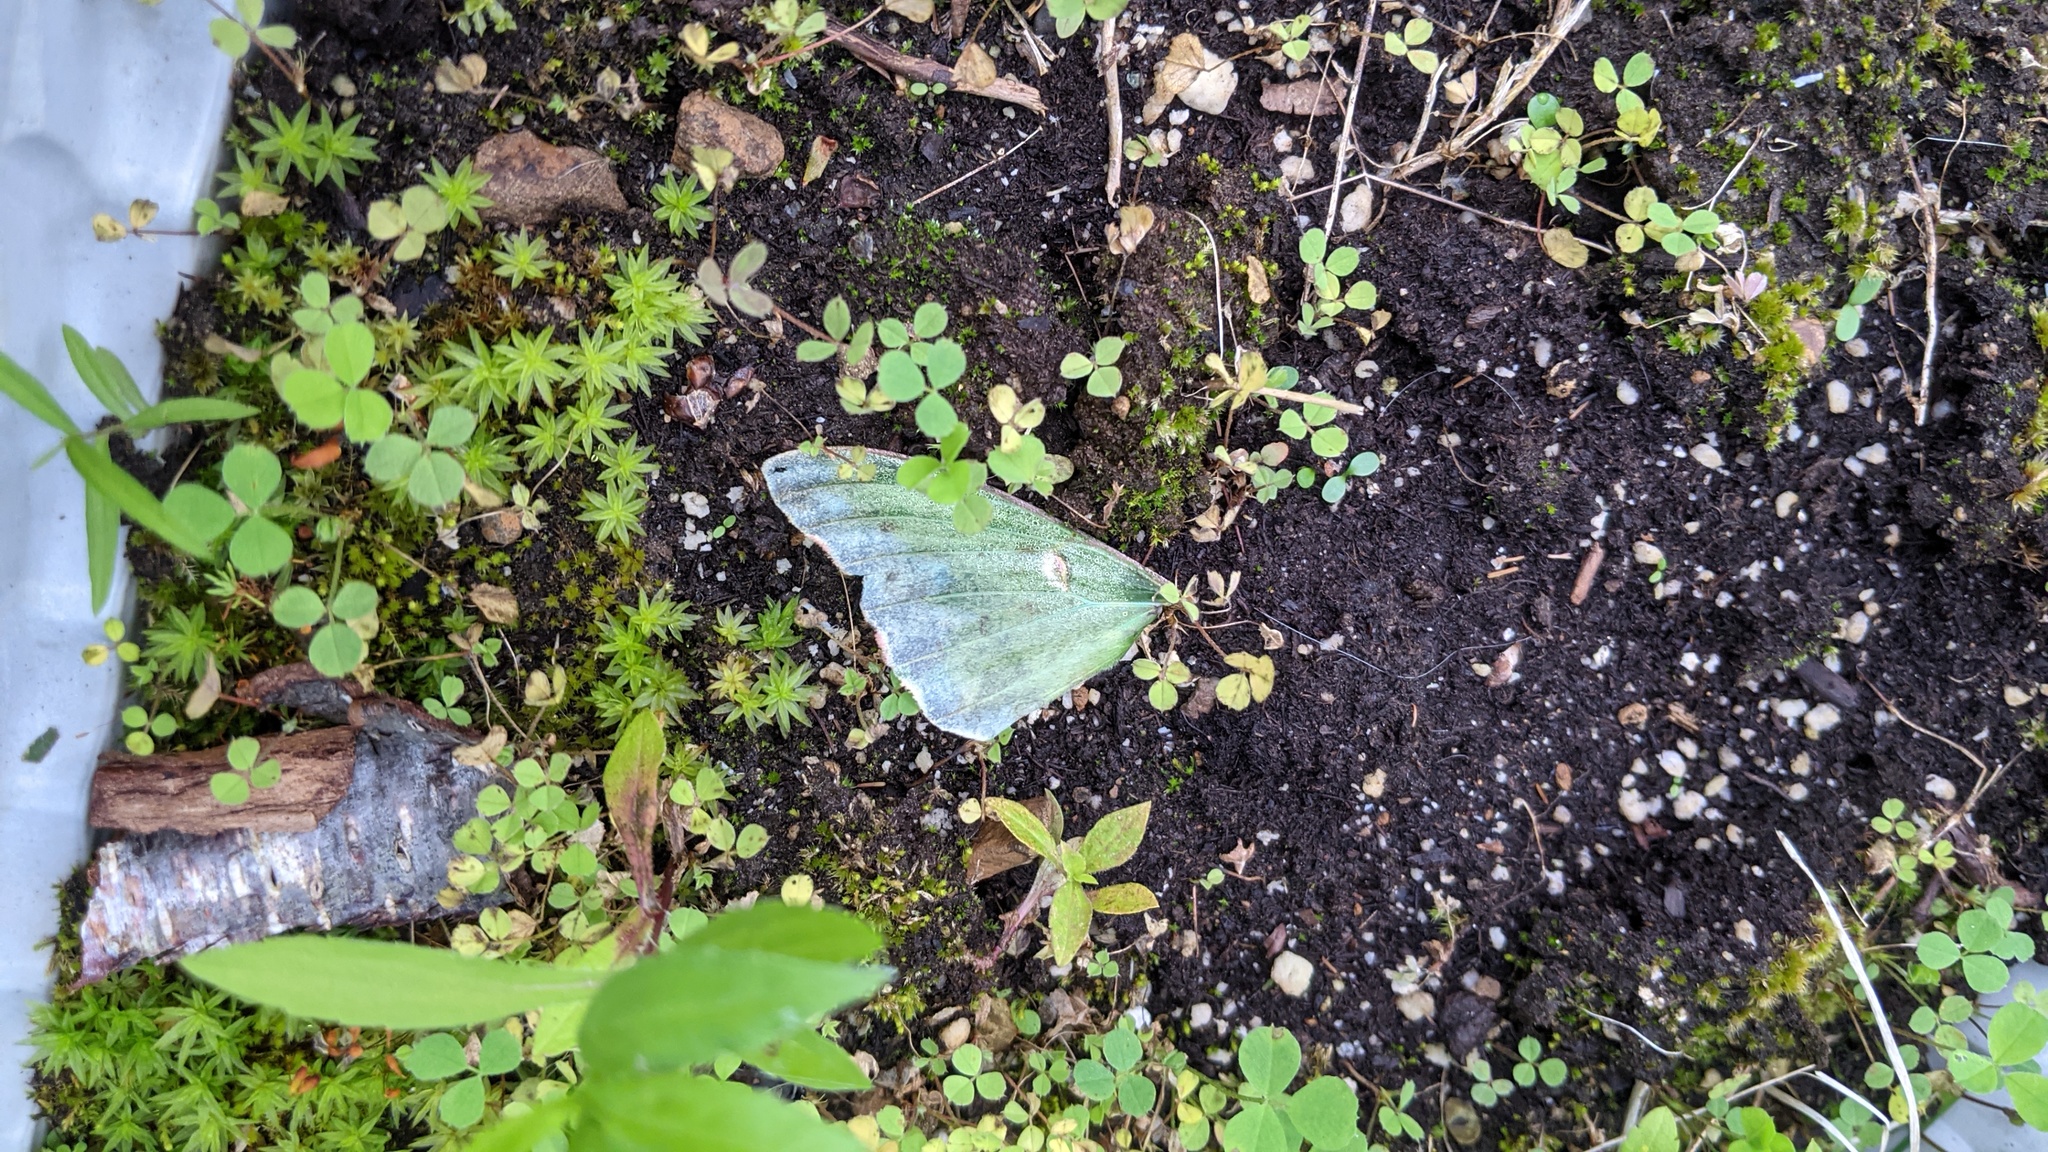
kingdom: Animalia
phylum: Arthropoda
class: Insecta
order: Lepidoptera
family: Saturniidae
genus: Actias
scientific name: Actias luna
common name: Luna moth
